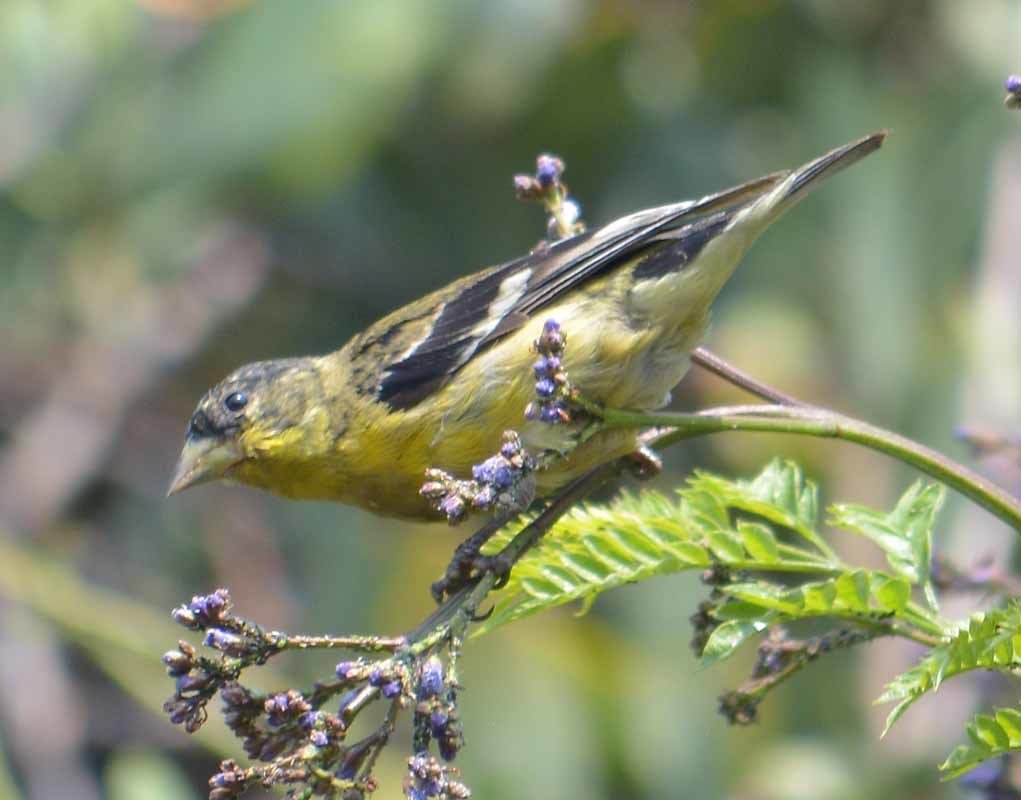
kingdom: Animalia
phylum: Chordata
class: Aves
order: Passeriformes
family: Fringillidae
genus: Spinus
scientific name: Spinus psaltria
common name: Lesser goldfinch
